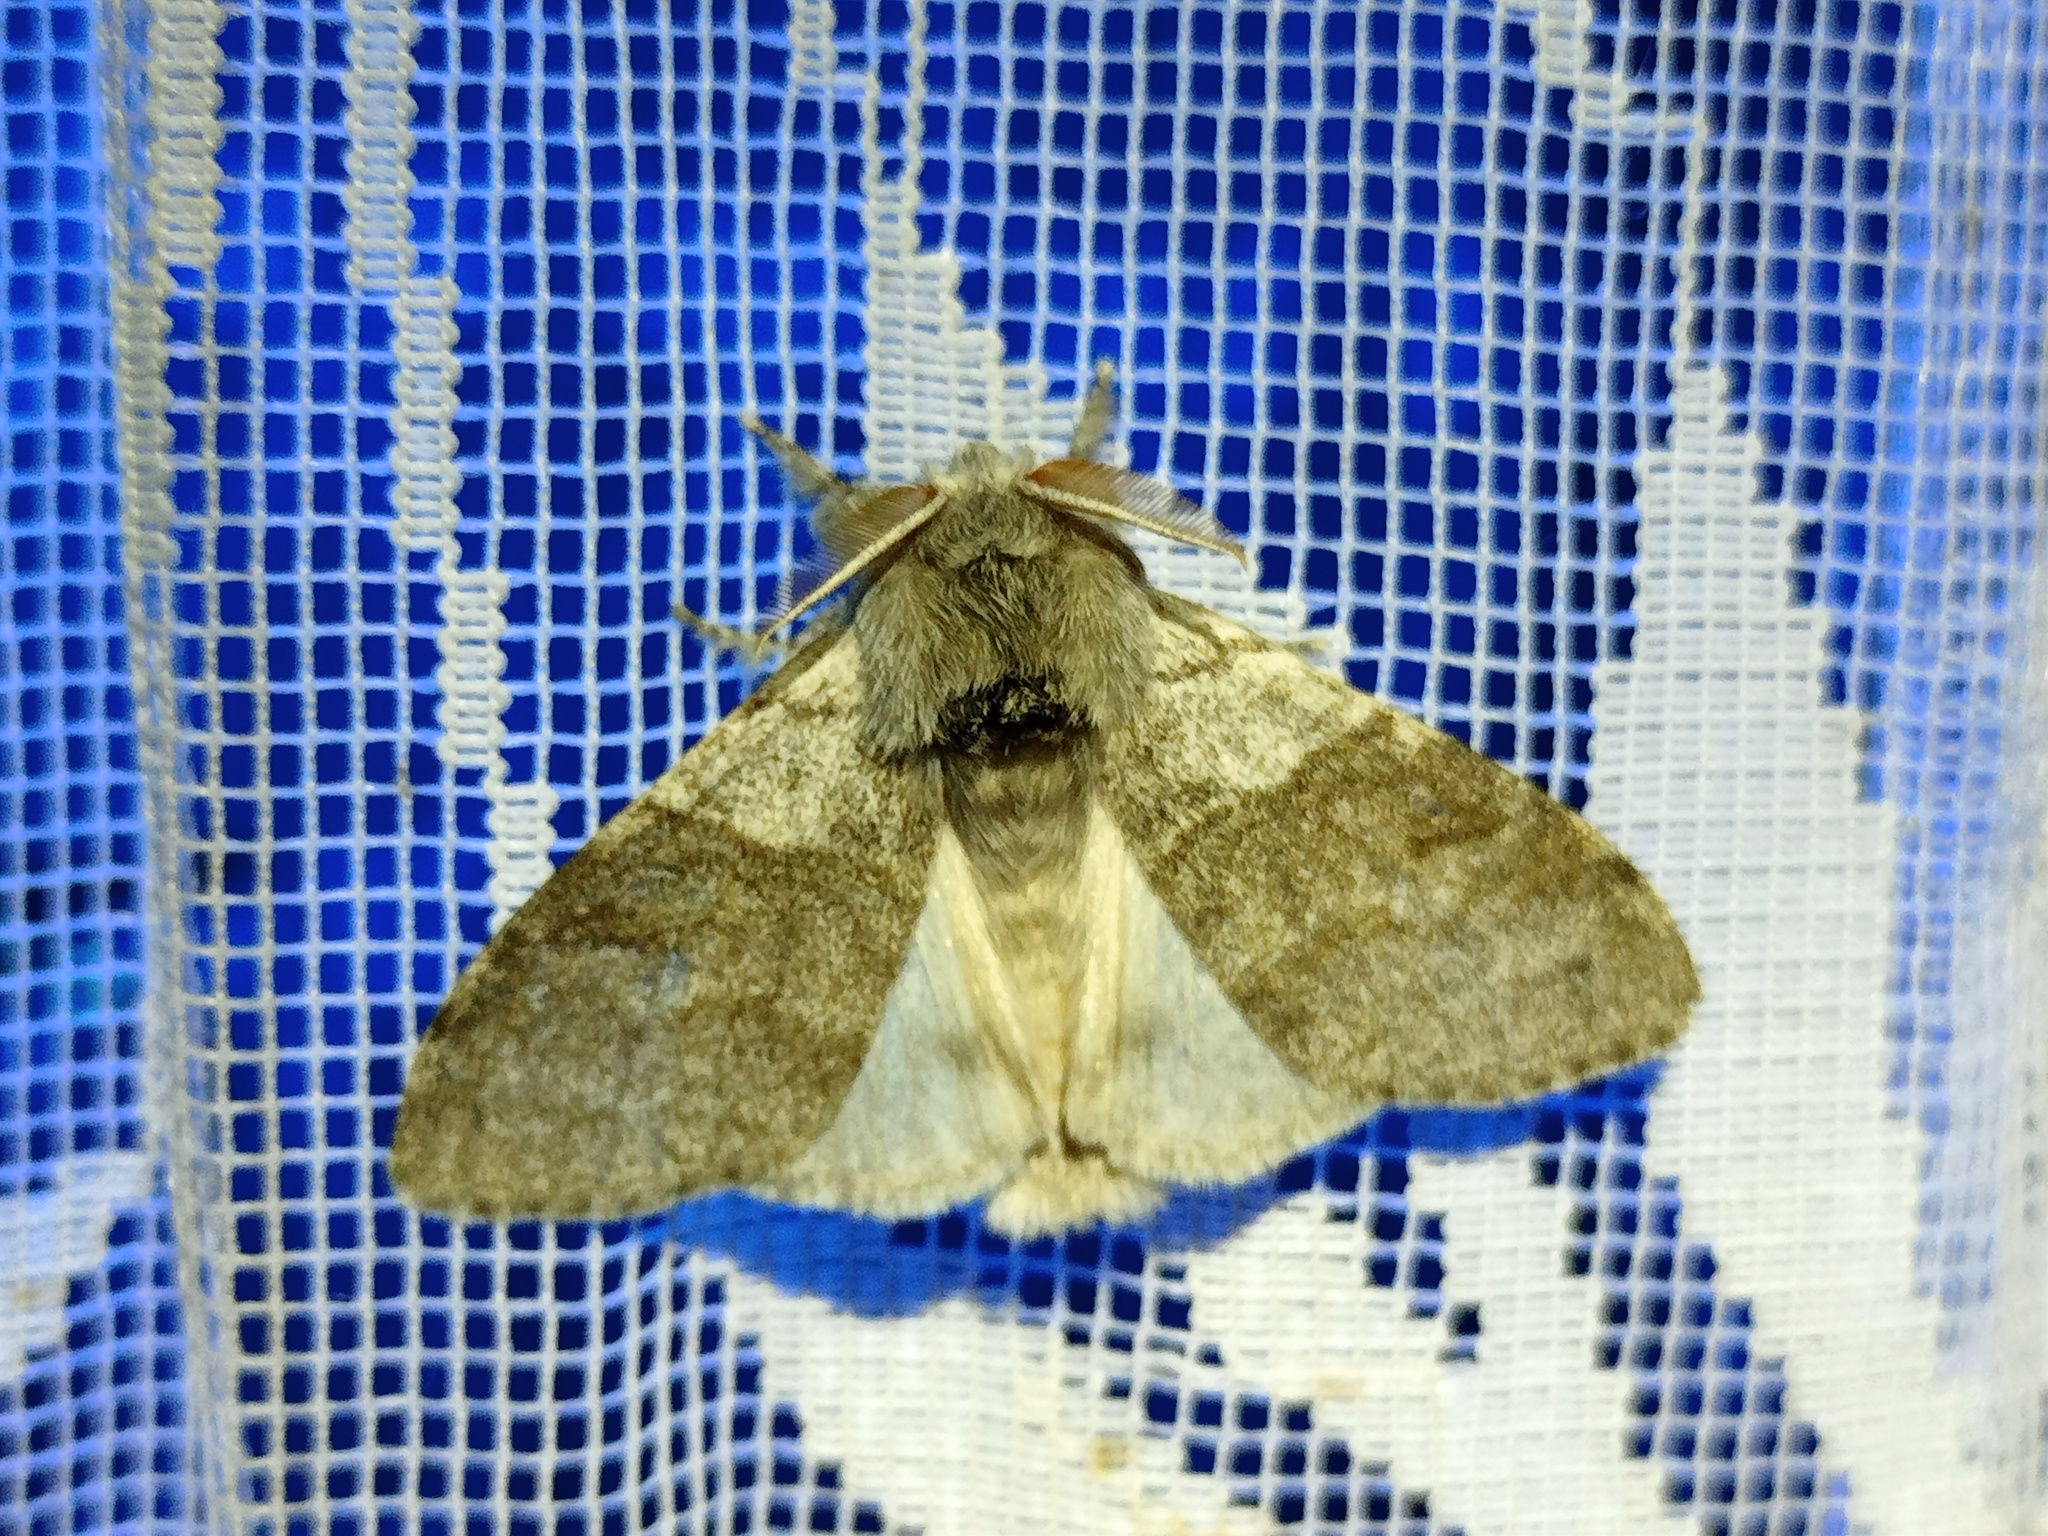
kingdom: Animalia
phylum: Arthropoda
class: Insecta
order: Lepidoptera
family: Erebidae
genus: Calliteara
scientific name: Calliteara pudibunda
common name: Pale tussock
